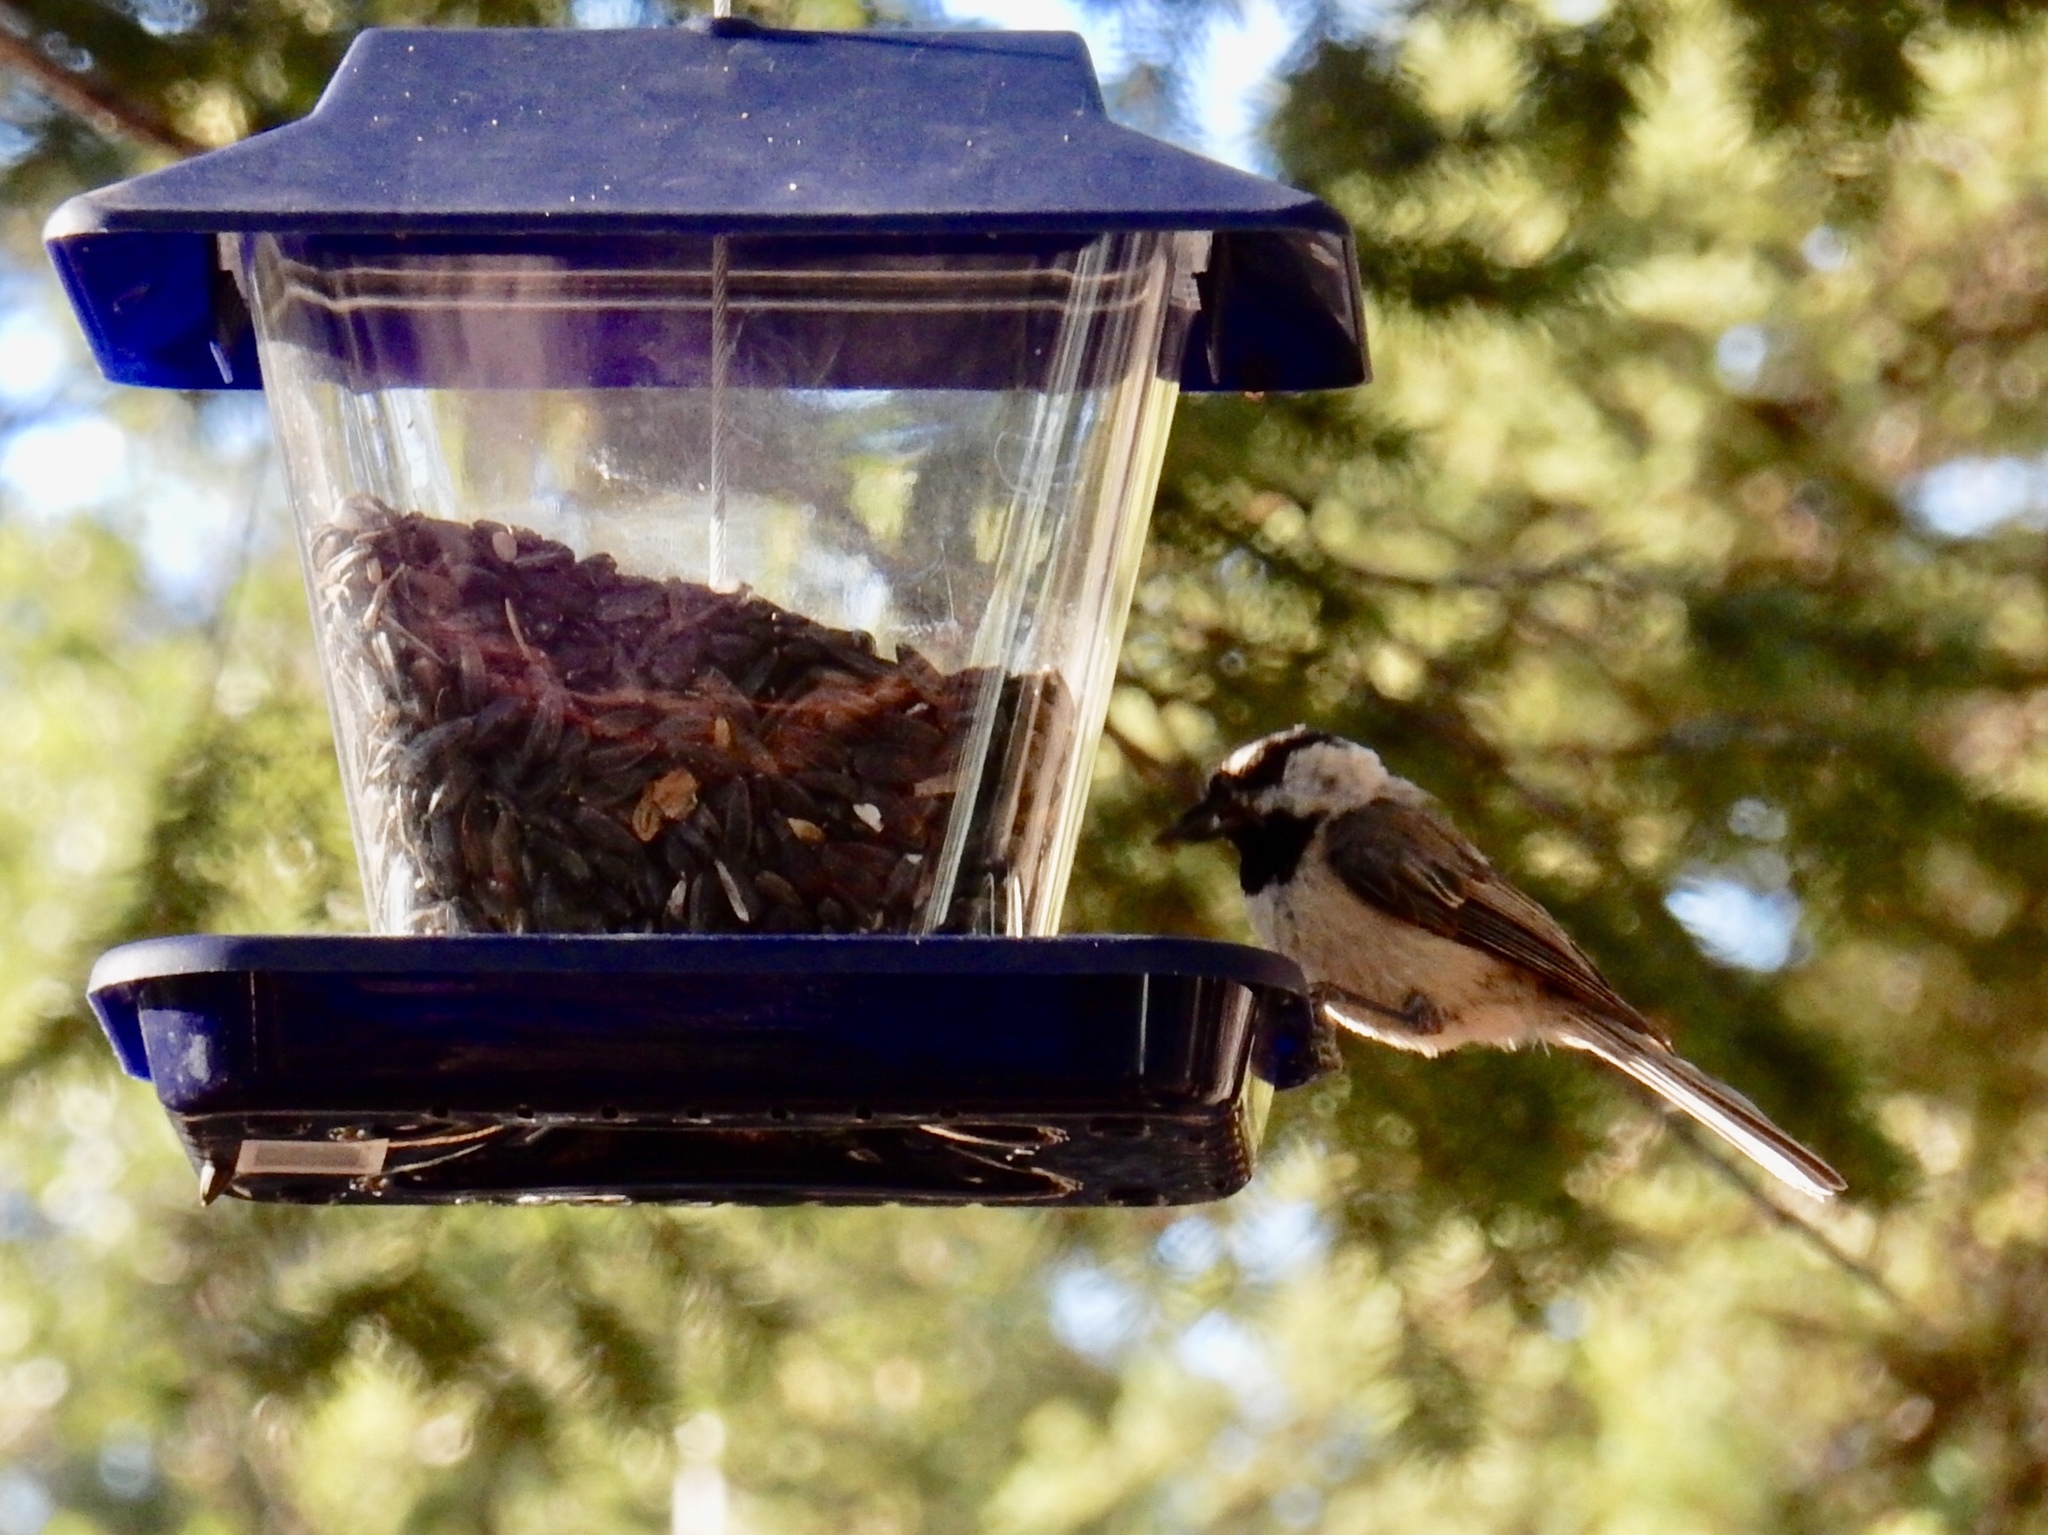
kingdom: Animalia
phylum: Chordata
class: Aves
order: Passeriformes
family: Paridae
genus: Poecile
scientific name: Poecile gambeli
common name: Mountain chickadee
